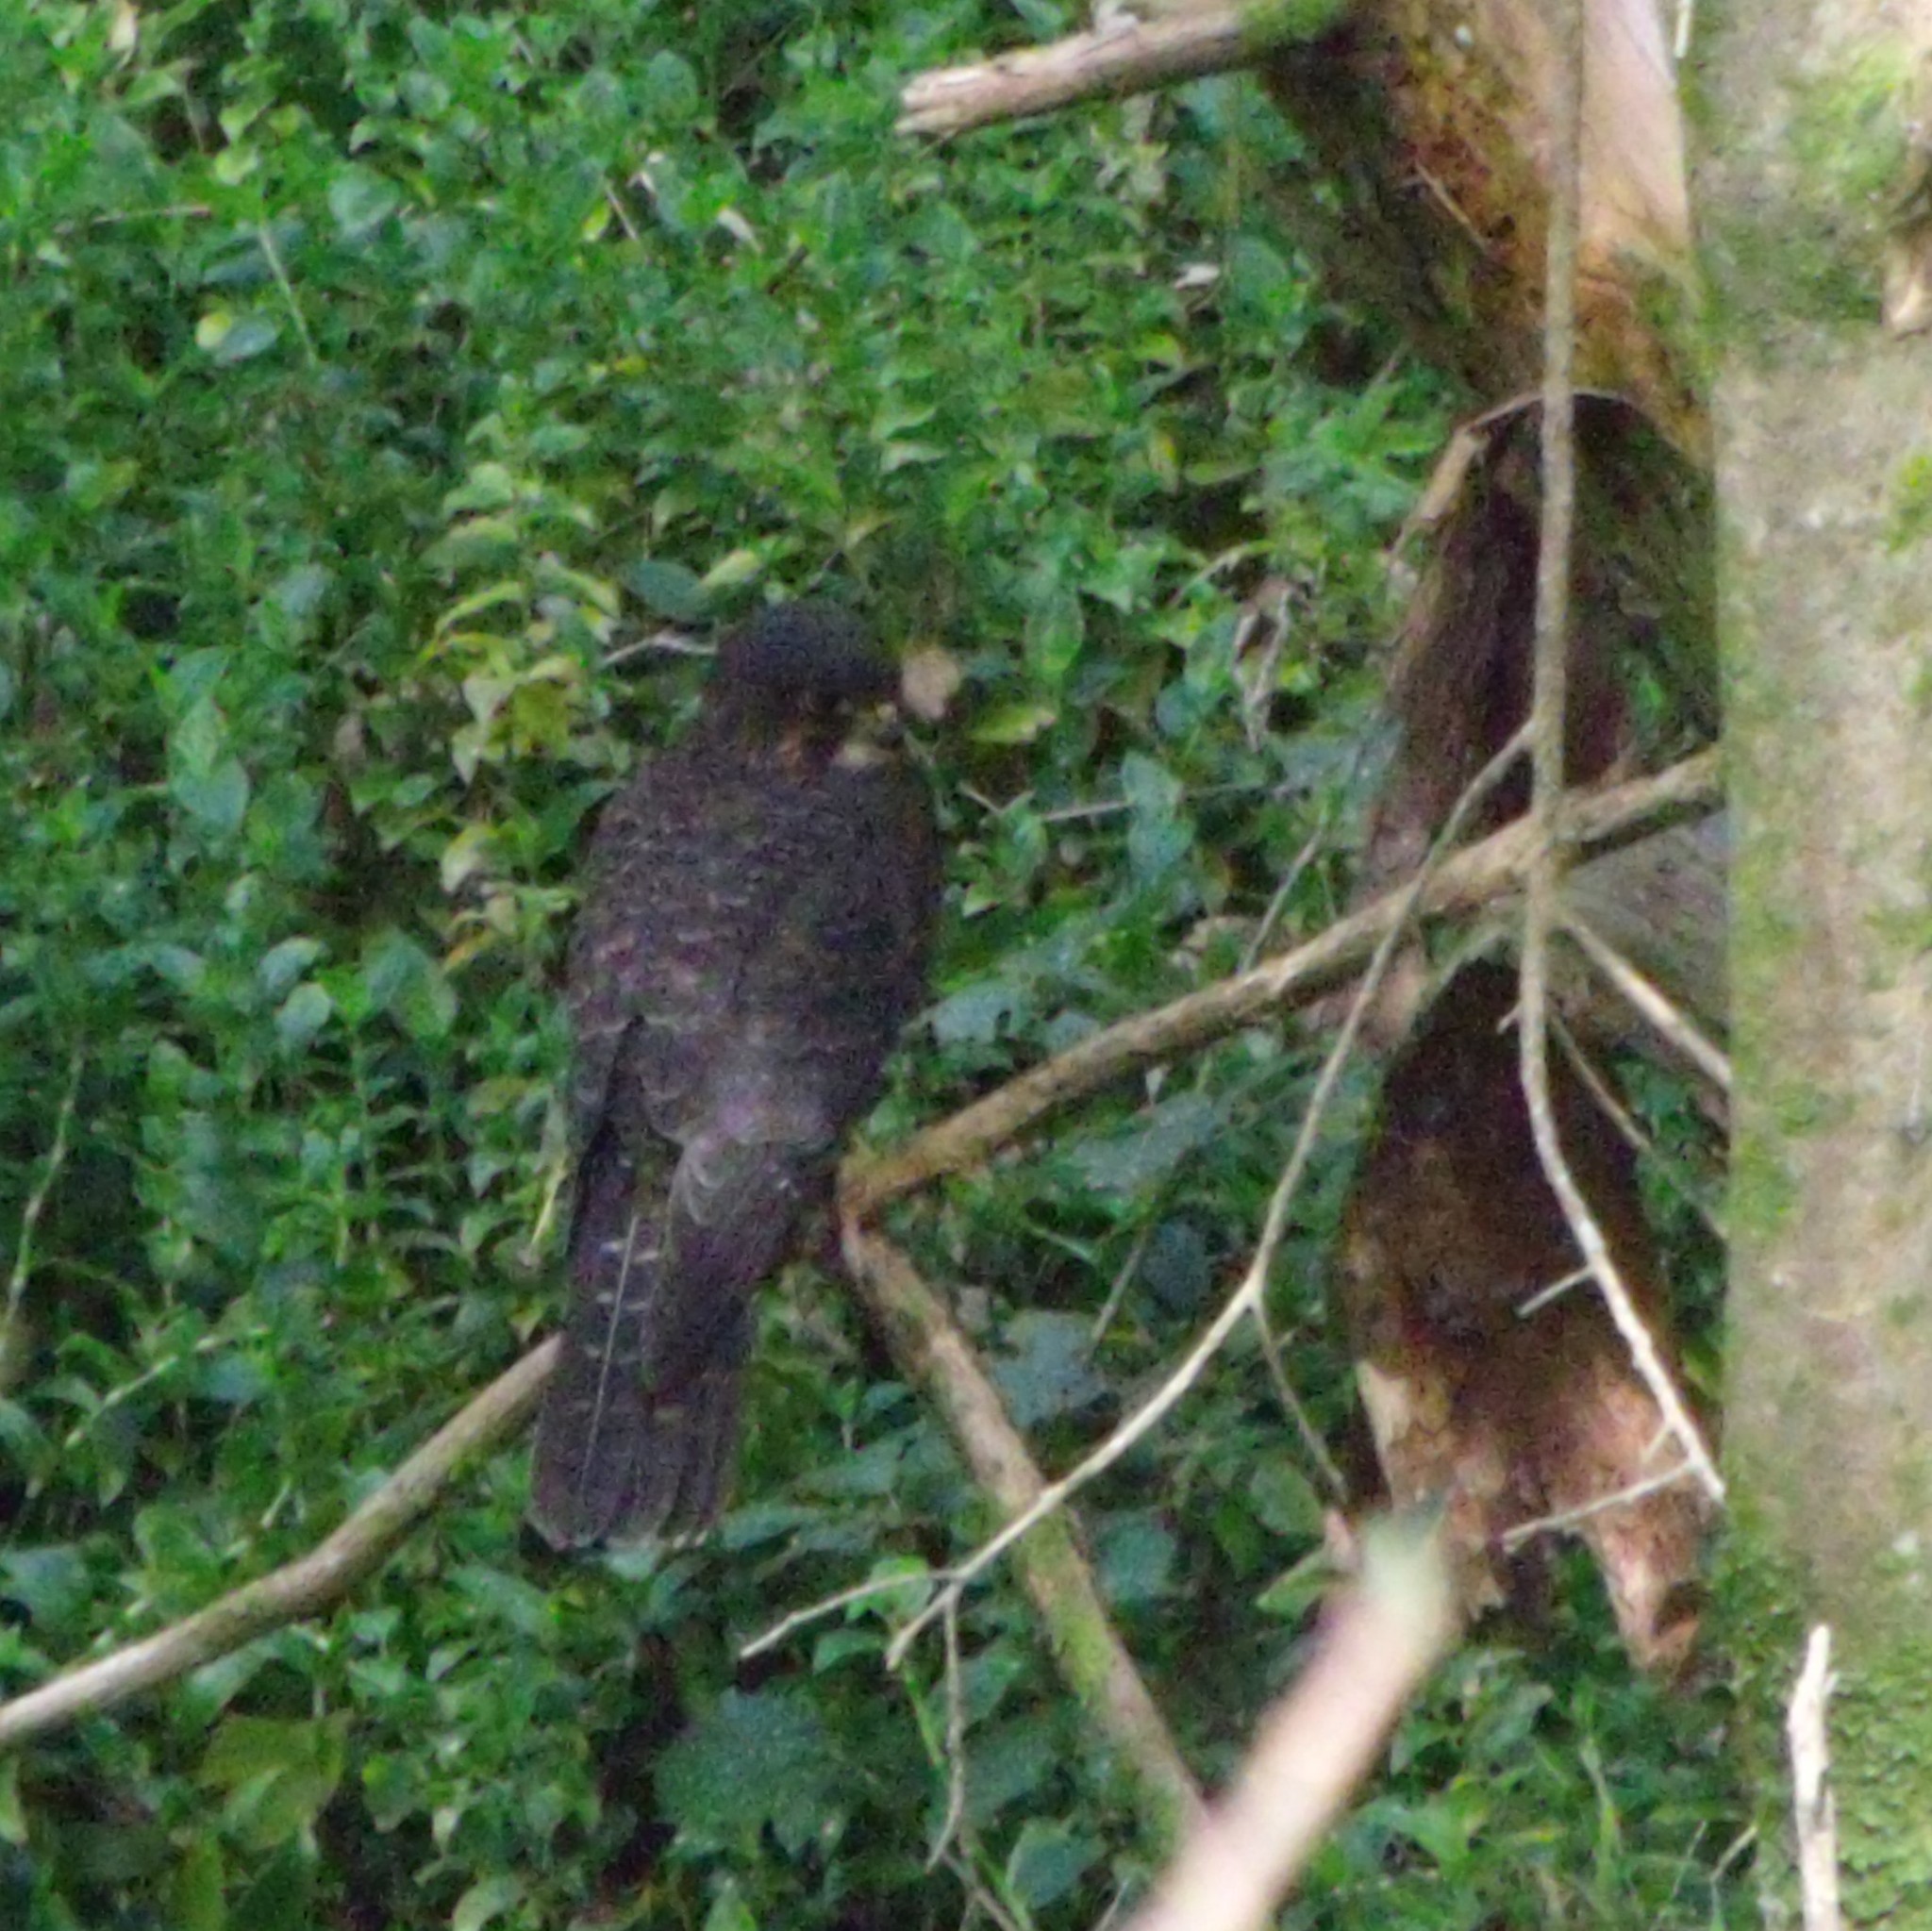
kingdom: Animalia
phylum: Chordata
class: Aves
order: Falconiformes
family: Falconidae
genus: Falco
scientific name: Falco novaeseelandiae
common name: New zealand falcon
